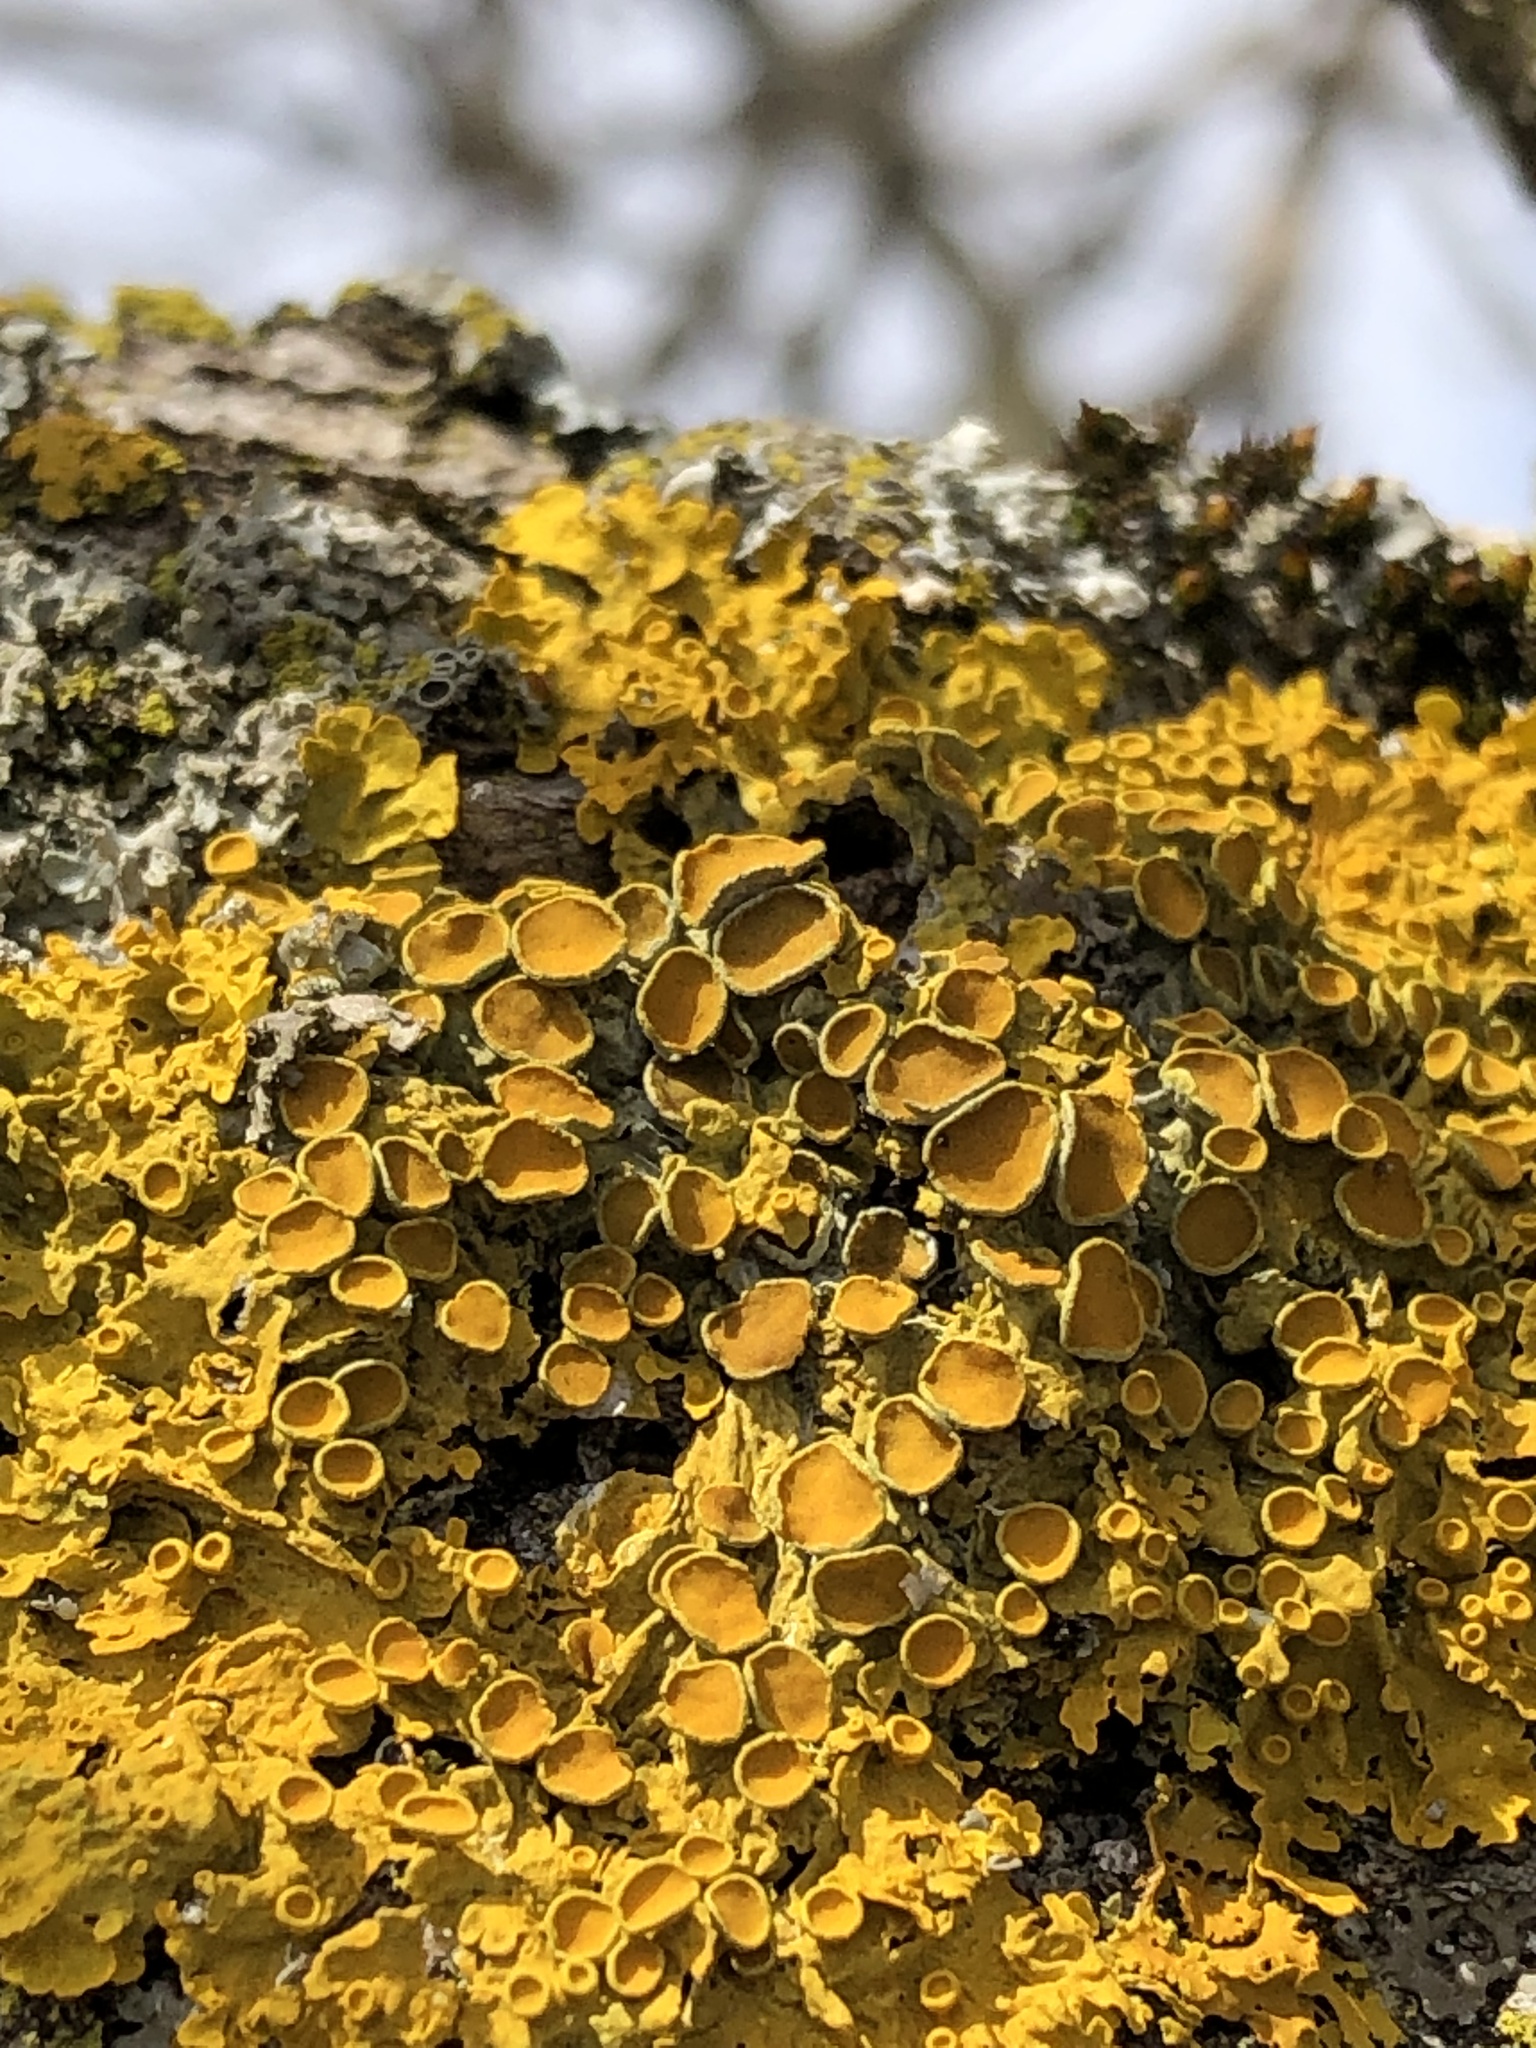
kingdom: Fungi
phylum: Ascomycota
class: Lecanoromycetes
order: Teloschistales
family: Teloschistaceae
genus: Xanthoria
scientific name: Xanthoria parietina
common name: Common orange lichen
